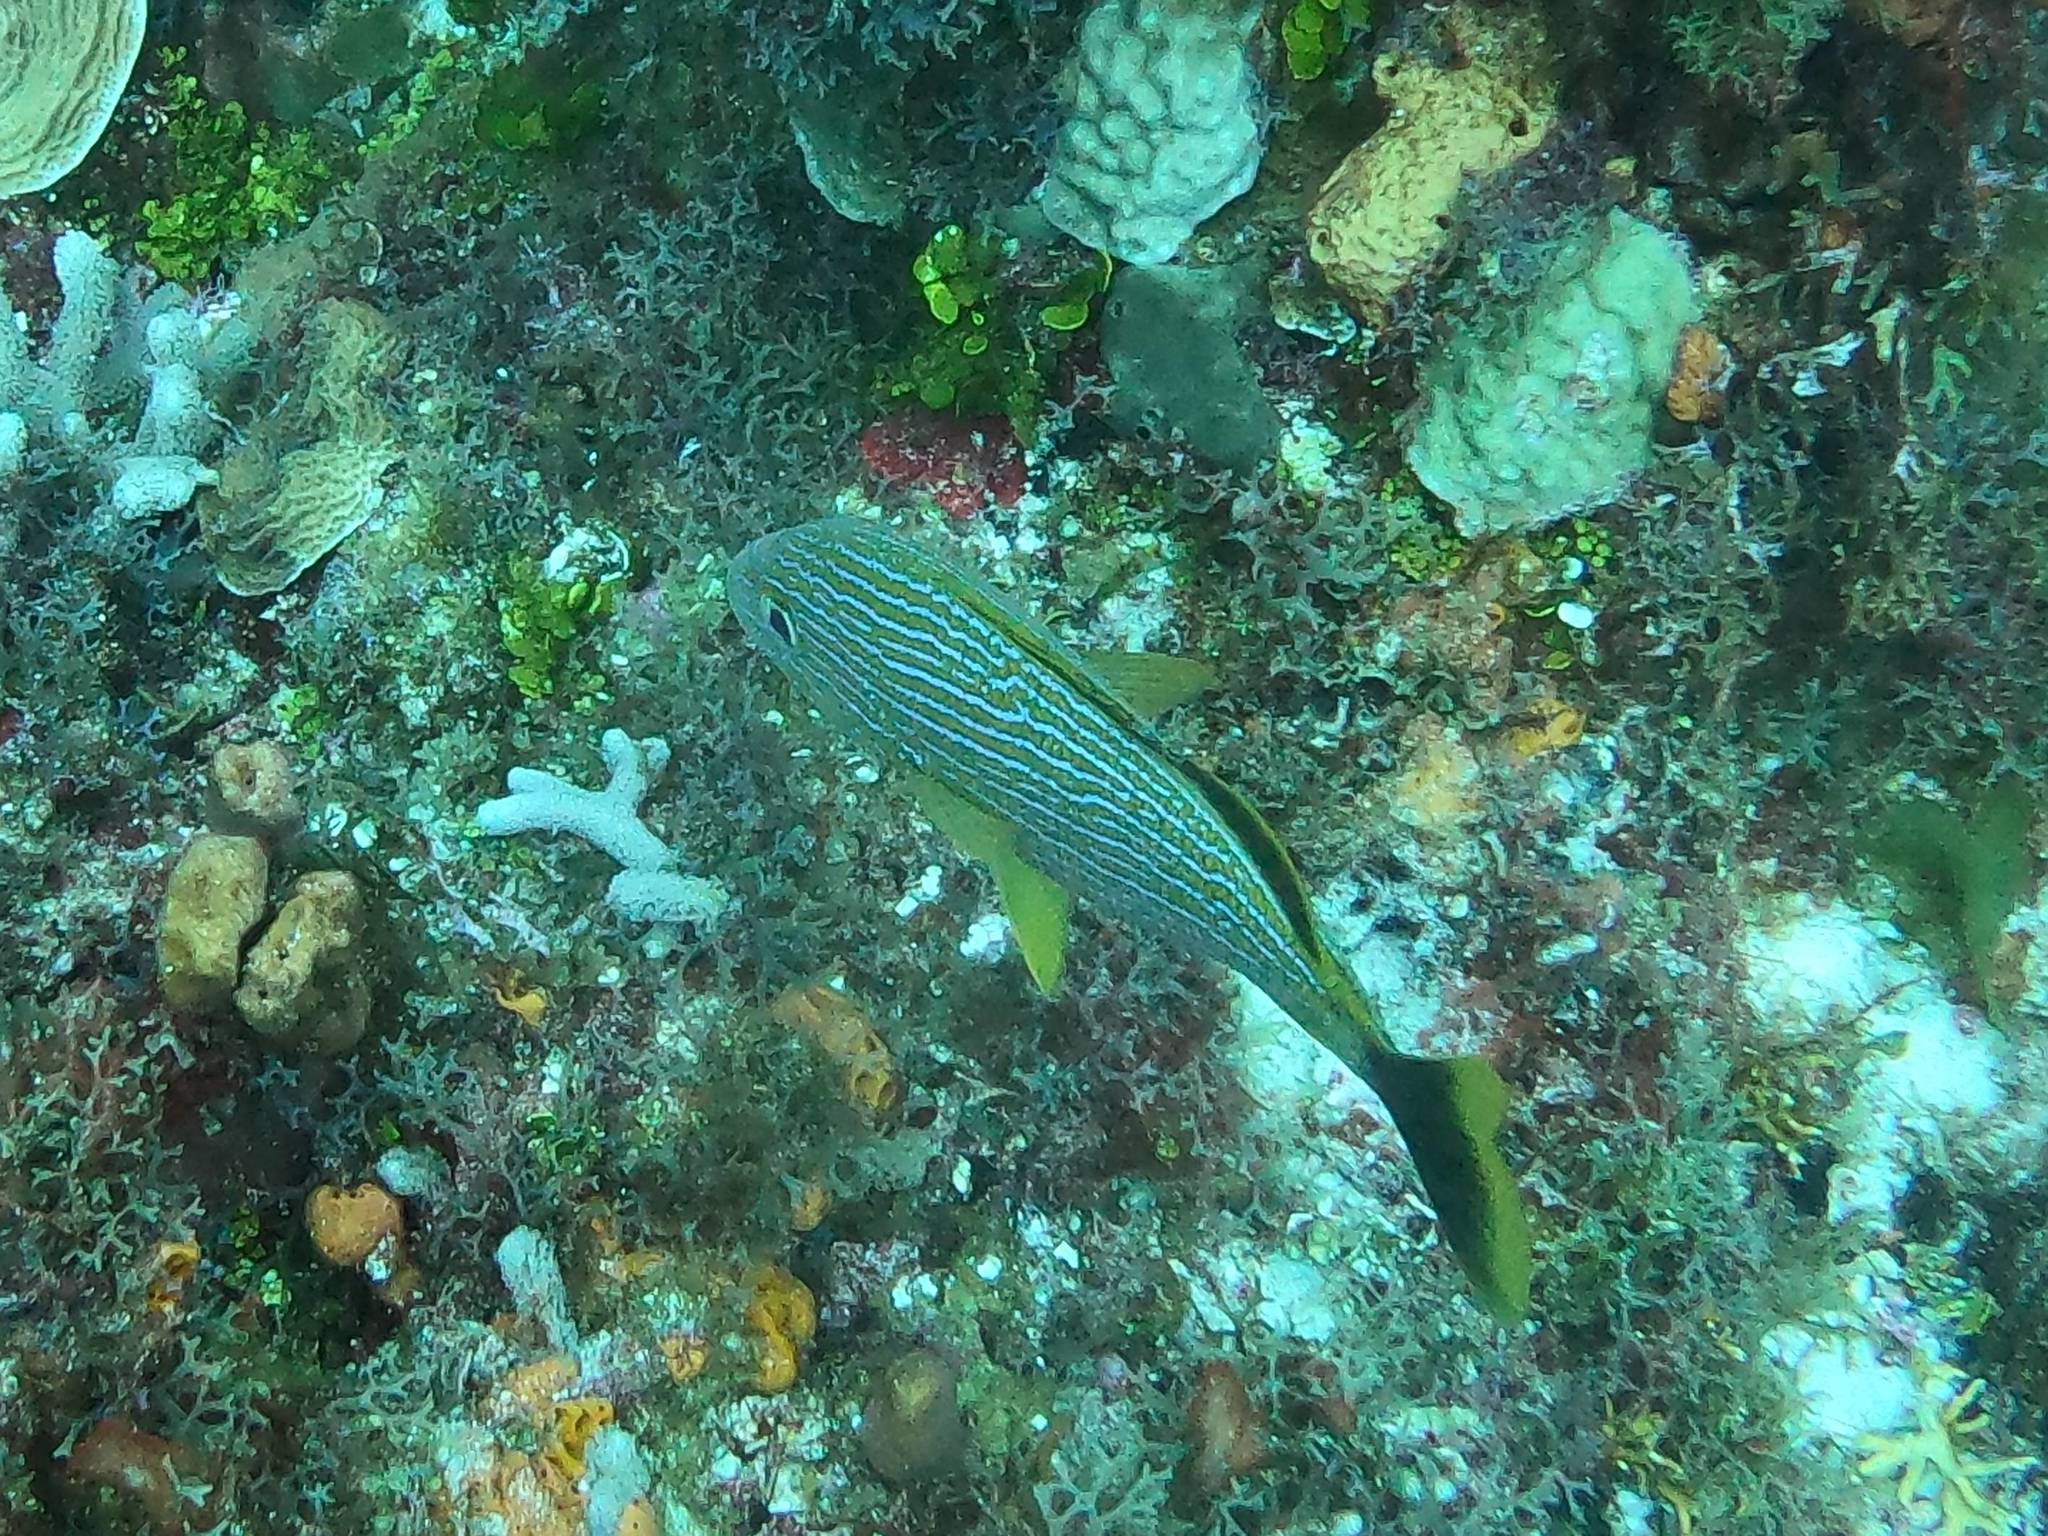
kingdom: Animalia
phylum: Chordata
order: Perciformes
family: Haemulidae
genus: Haemulon
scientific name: Haemulon sciurus
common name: Bluestriped grunt
